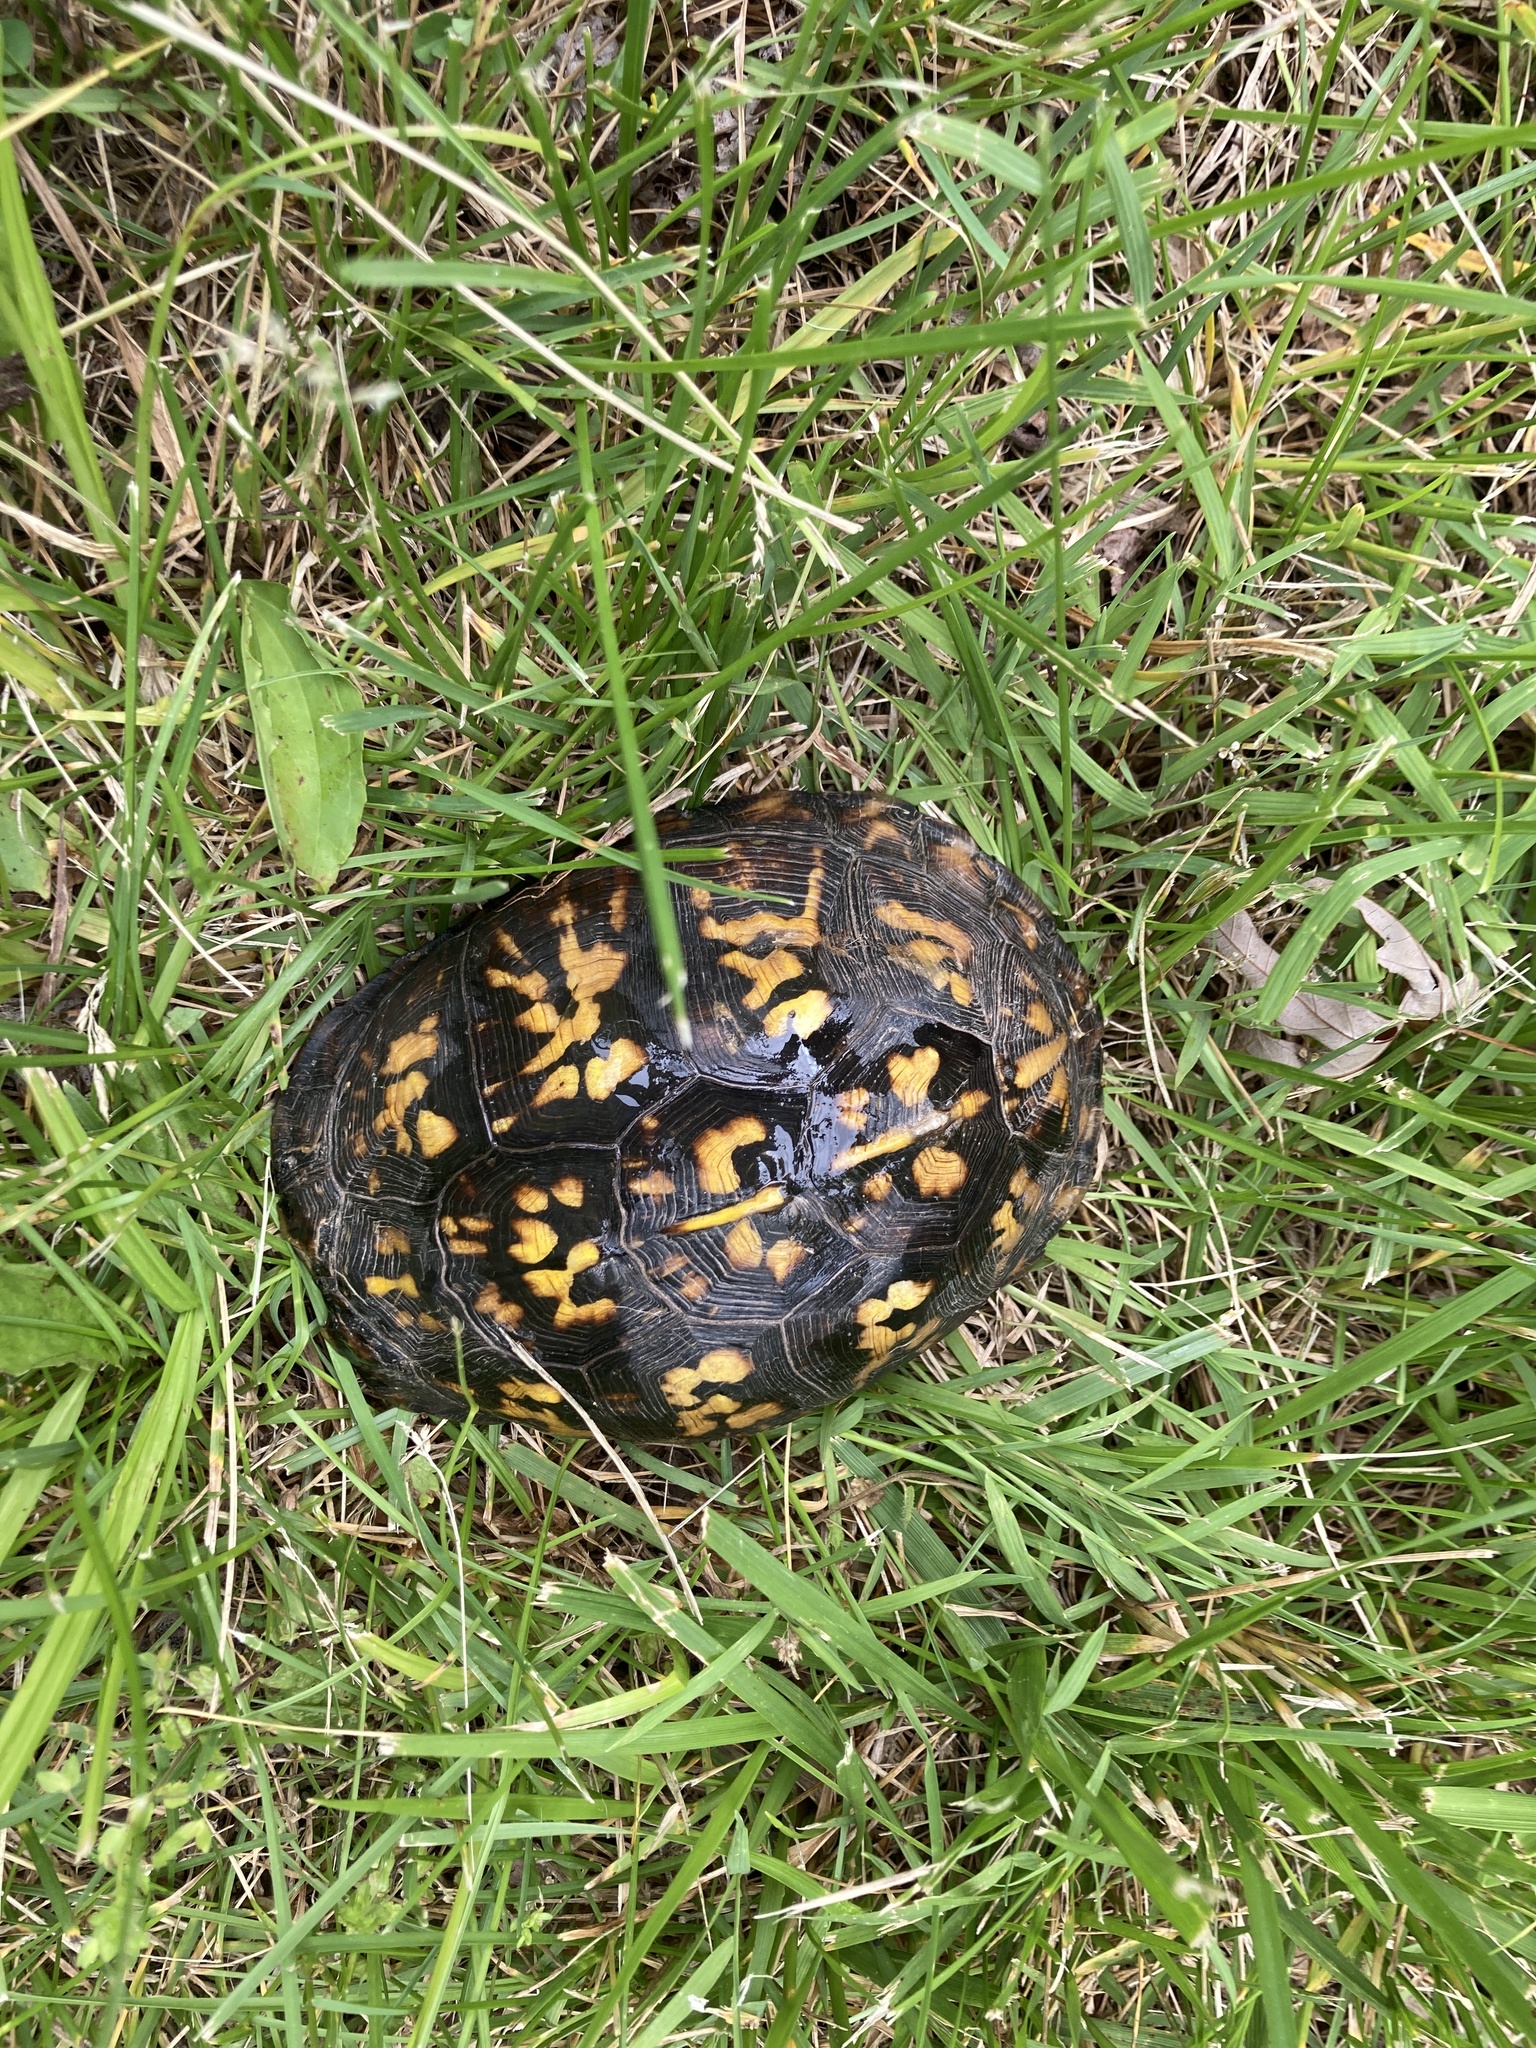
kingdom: Animalia
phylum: Chordata
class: Testudines
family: Emydidae
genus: Terrapene
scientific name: Terrapene carolina
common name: Common box turtle
